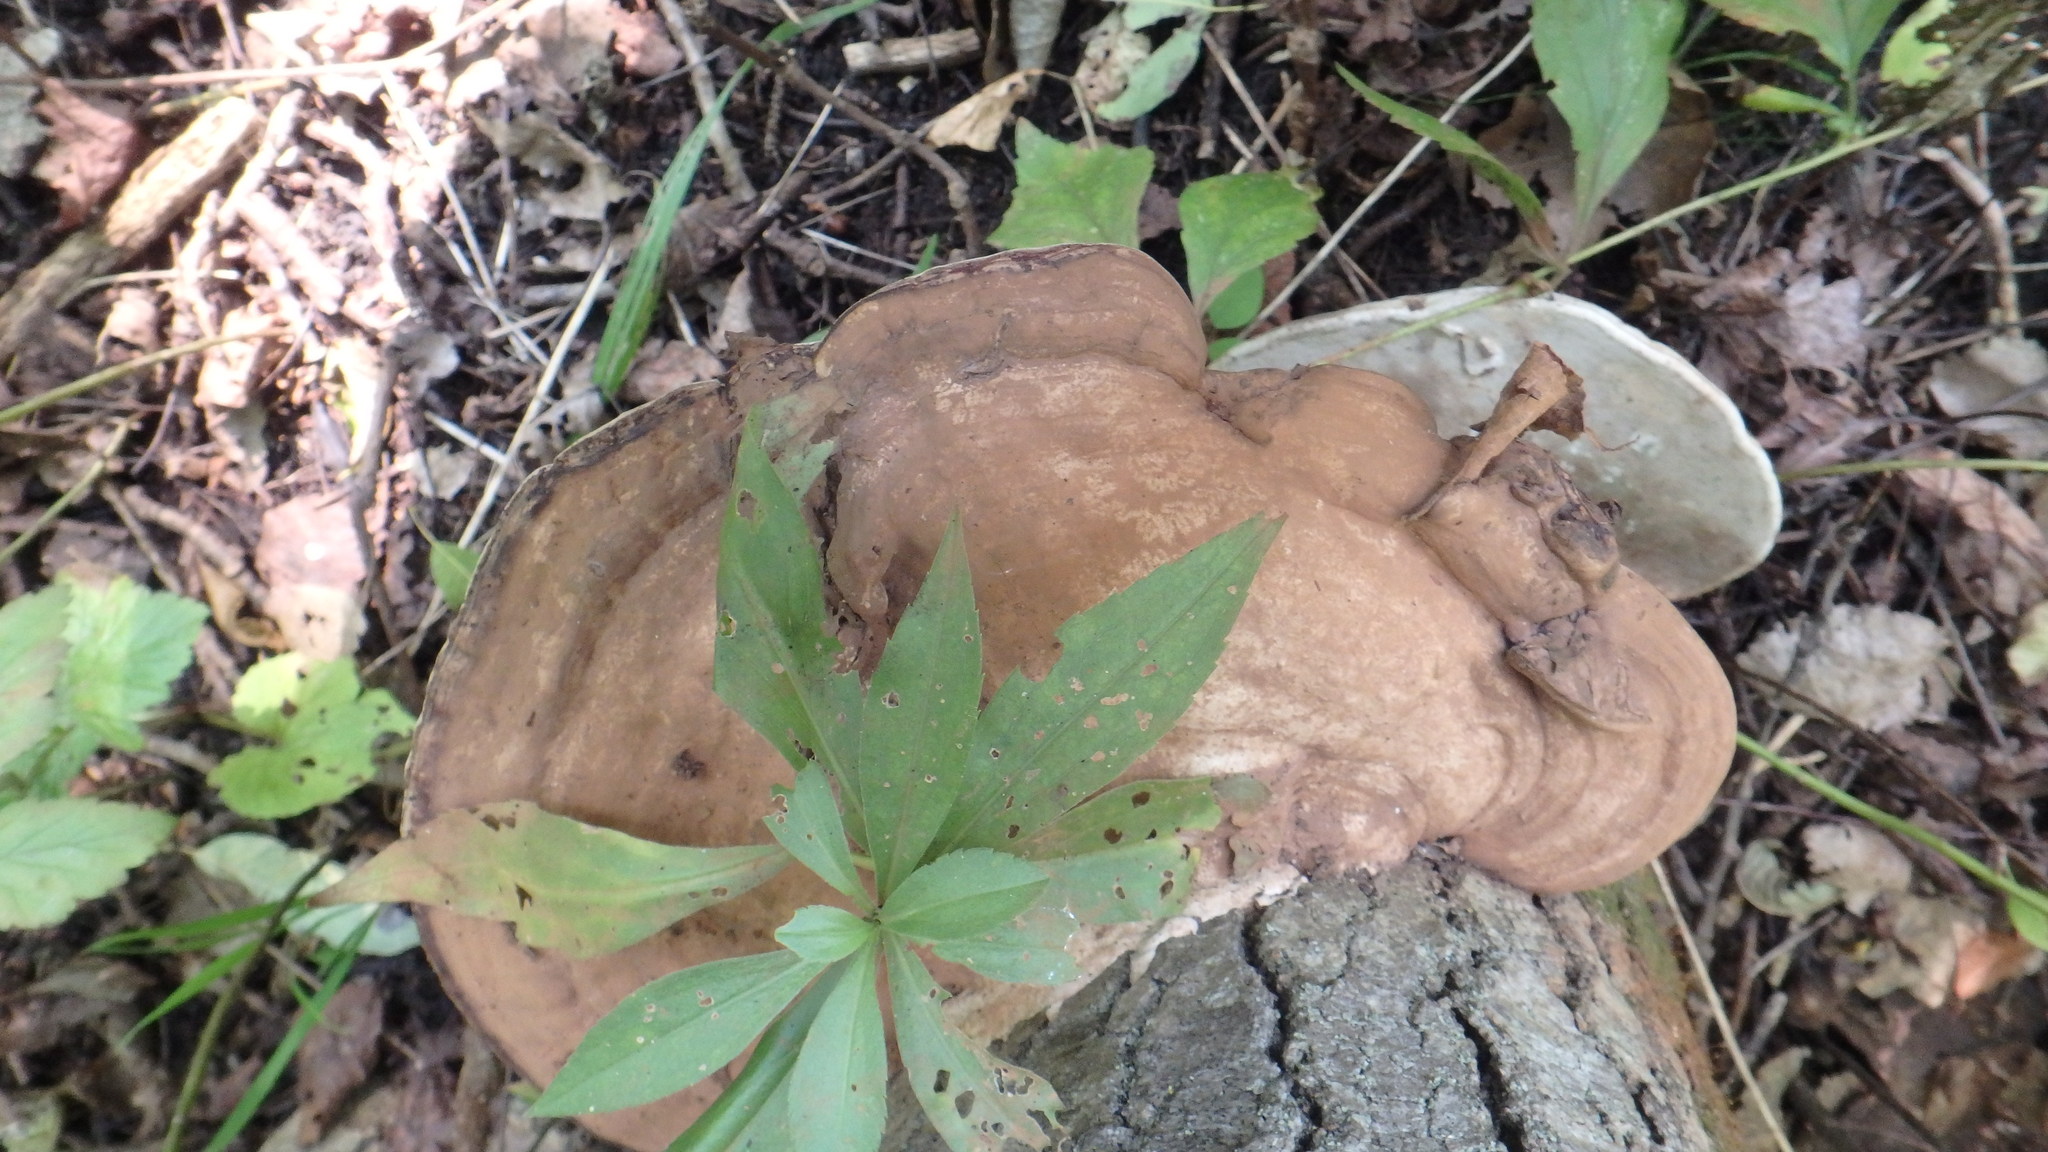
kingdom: Fungi
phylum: Basidiomycota
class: Agaricomycetes
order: Polyporales
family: Polyporaceae
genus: Ganoderma
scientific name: Ganoderma applanatum
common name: Artist's bracket
